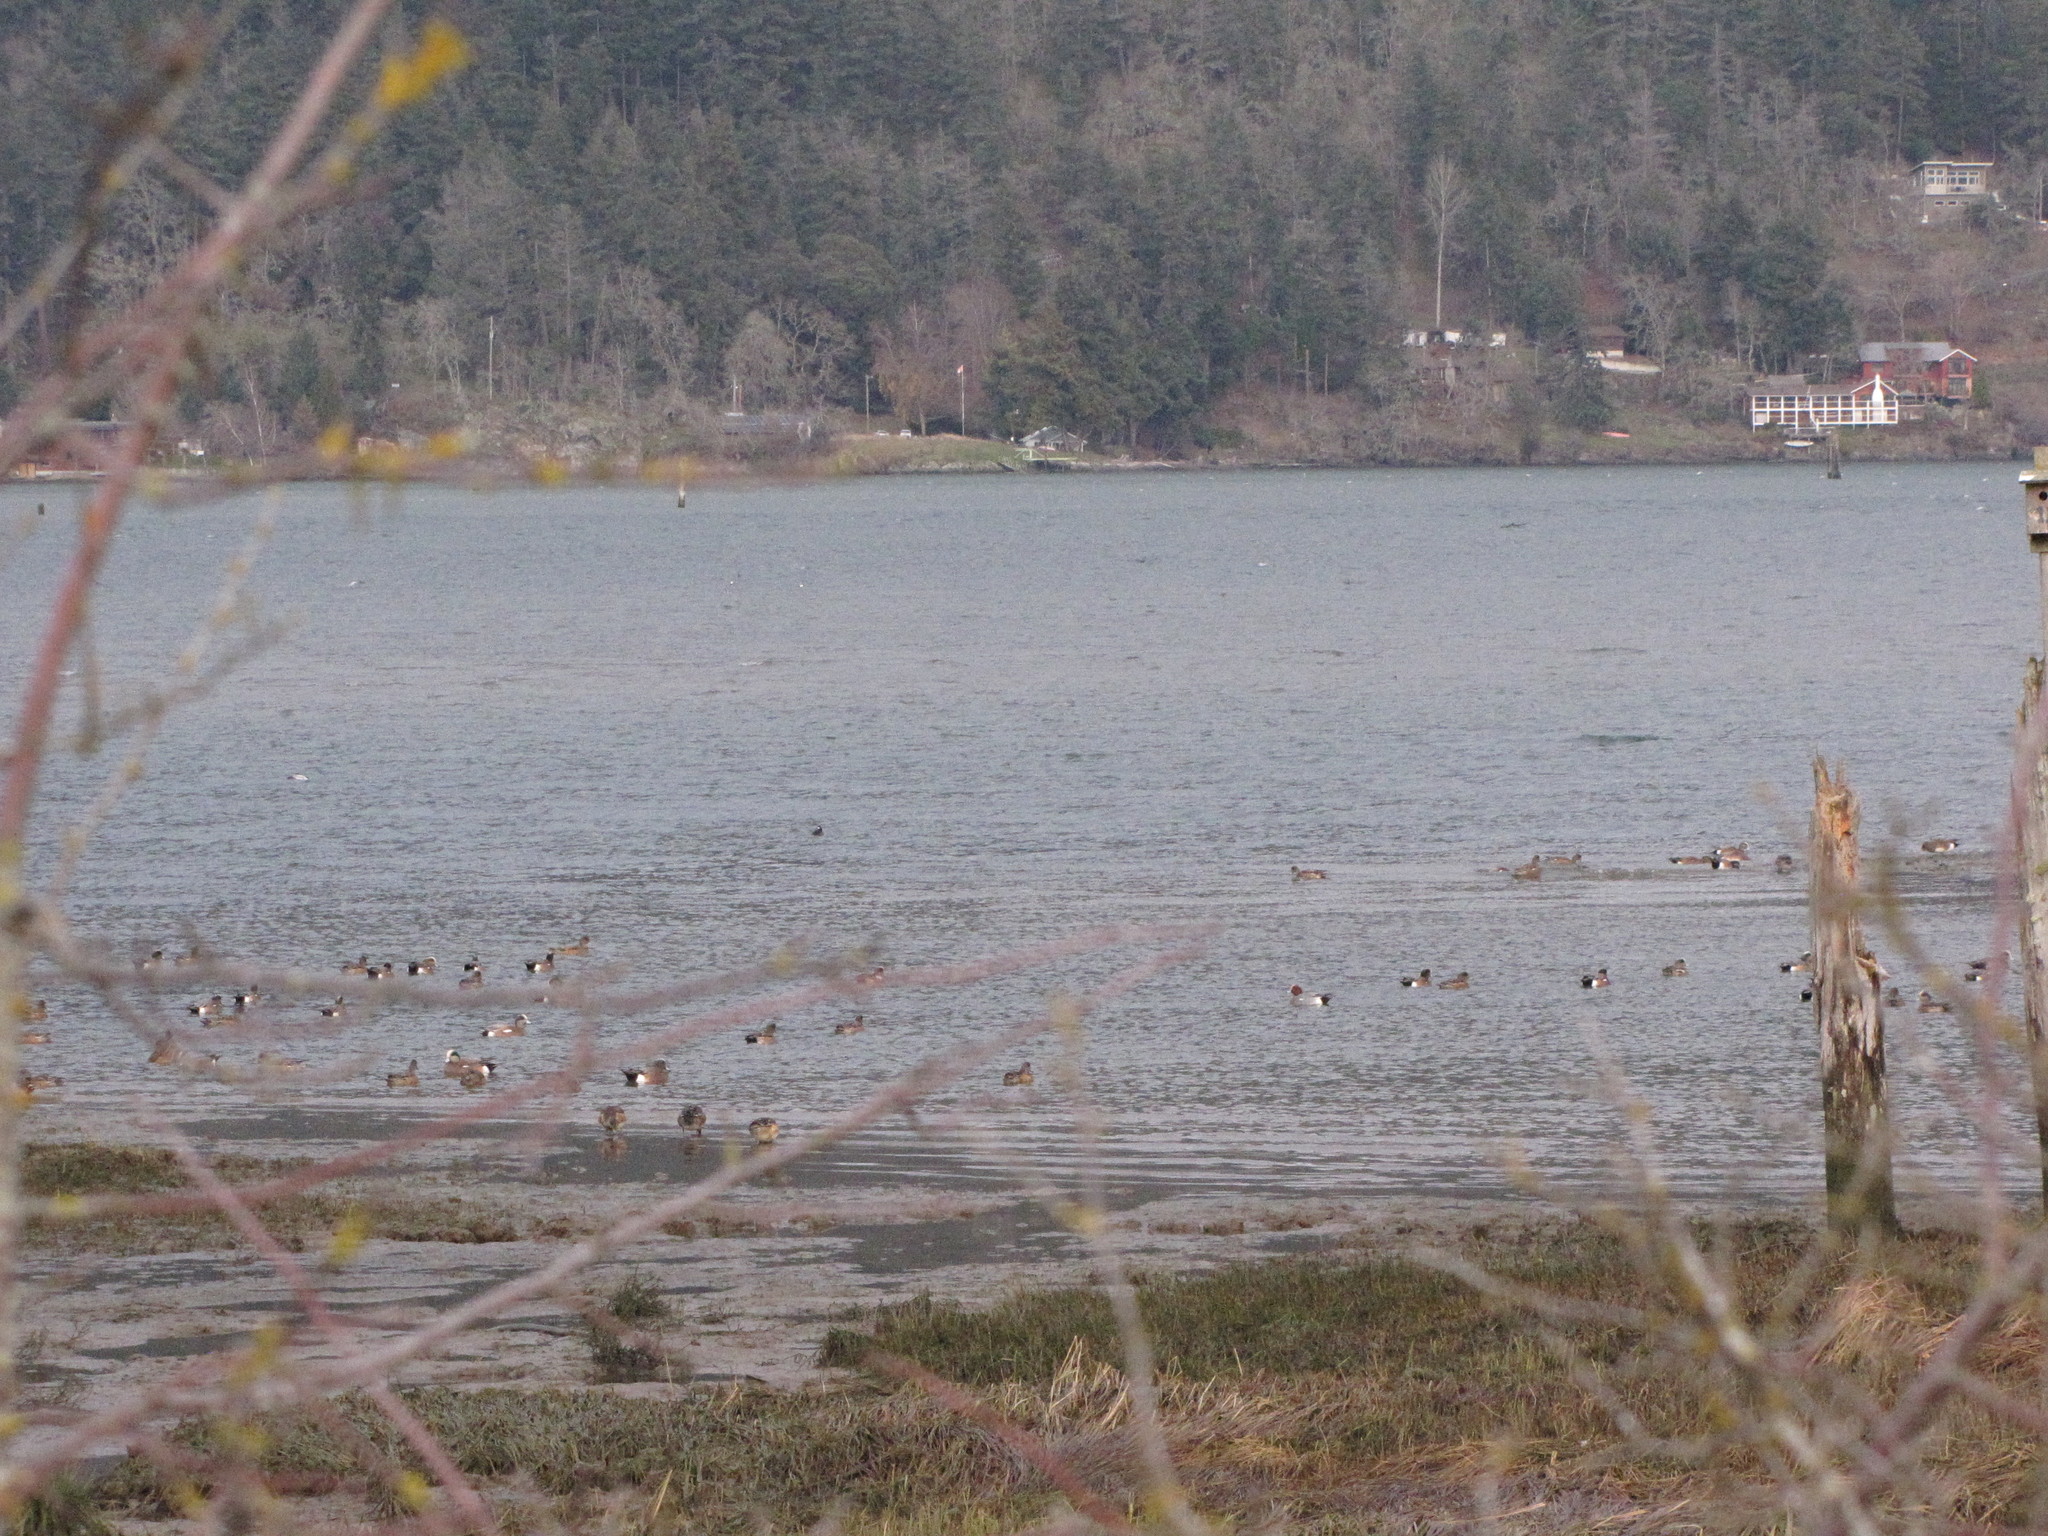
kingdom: Animalia
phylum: Chordata
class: Aves
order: Anseriformes
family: Anatidae
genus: Mareca
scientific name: Mareca penelope
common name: Eurasian wigeon
